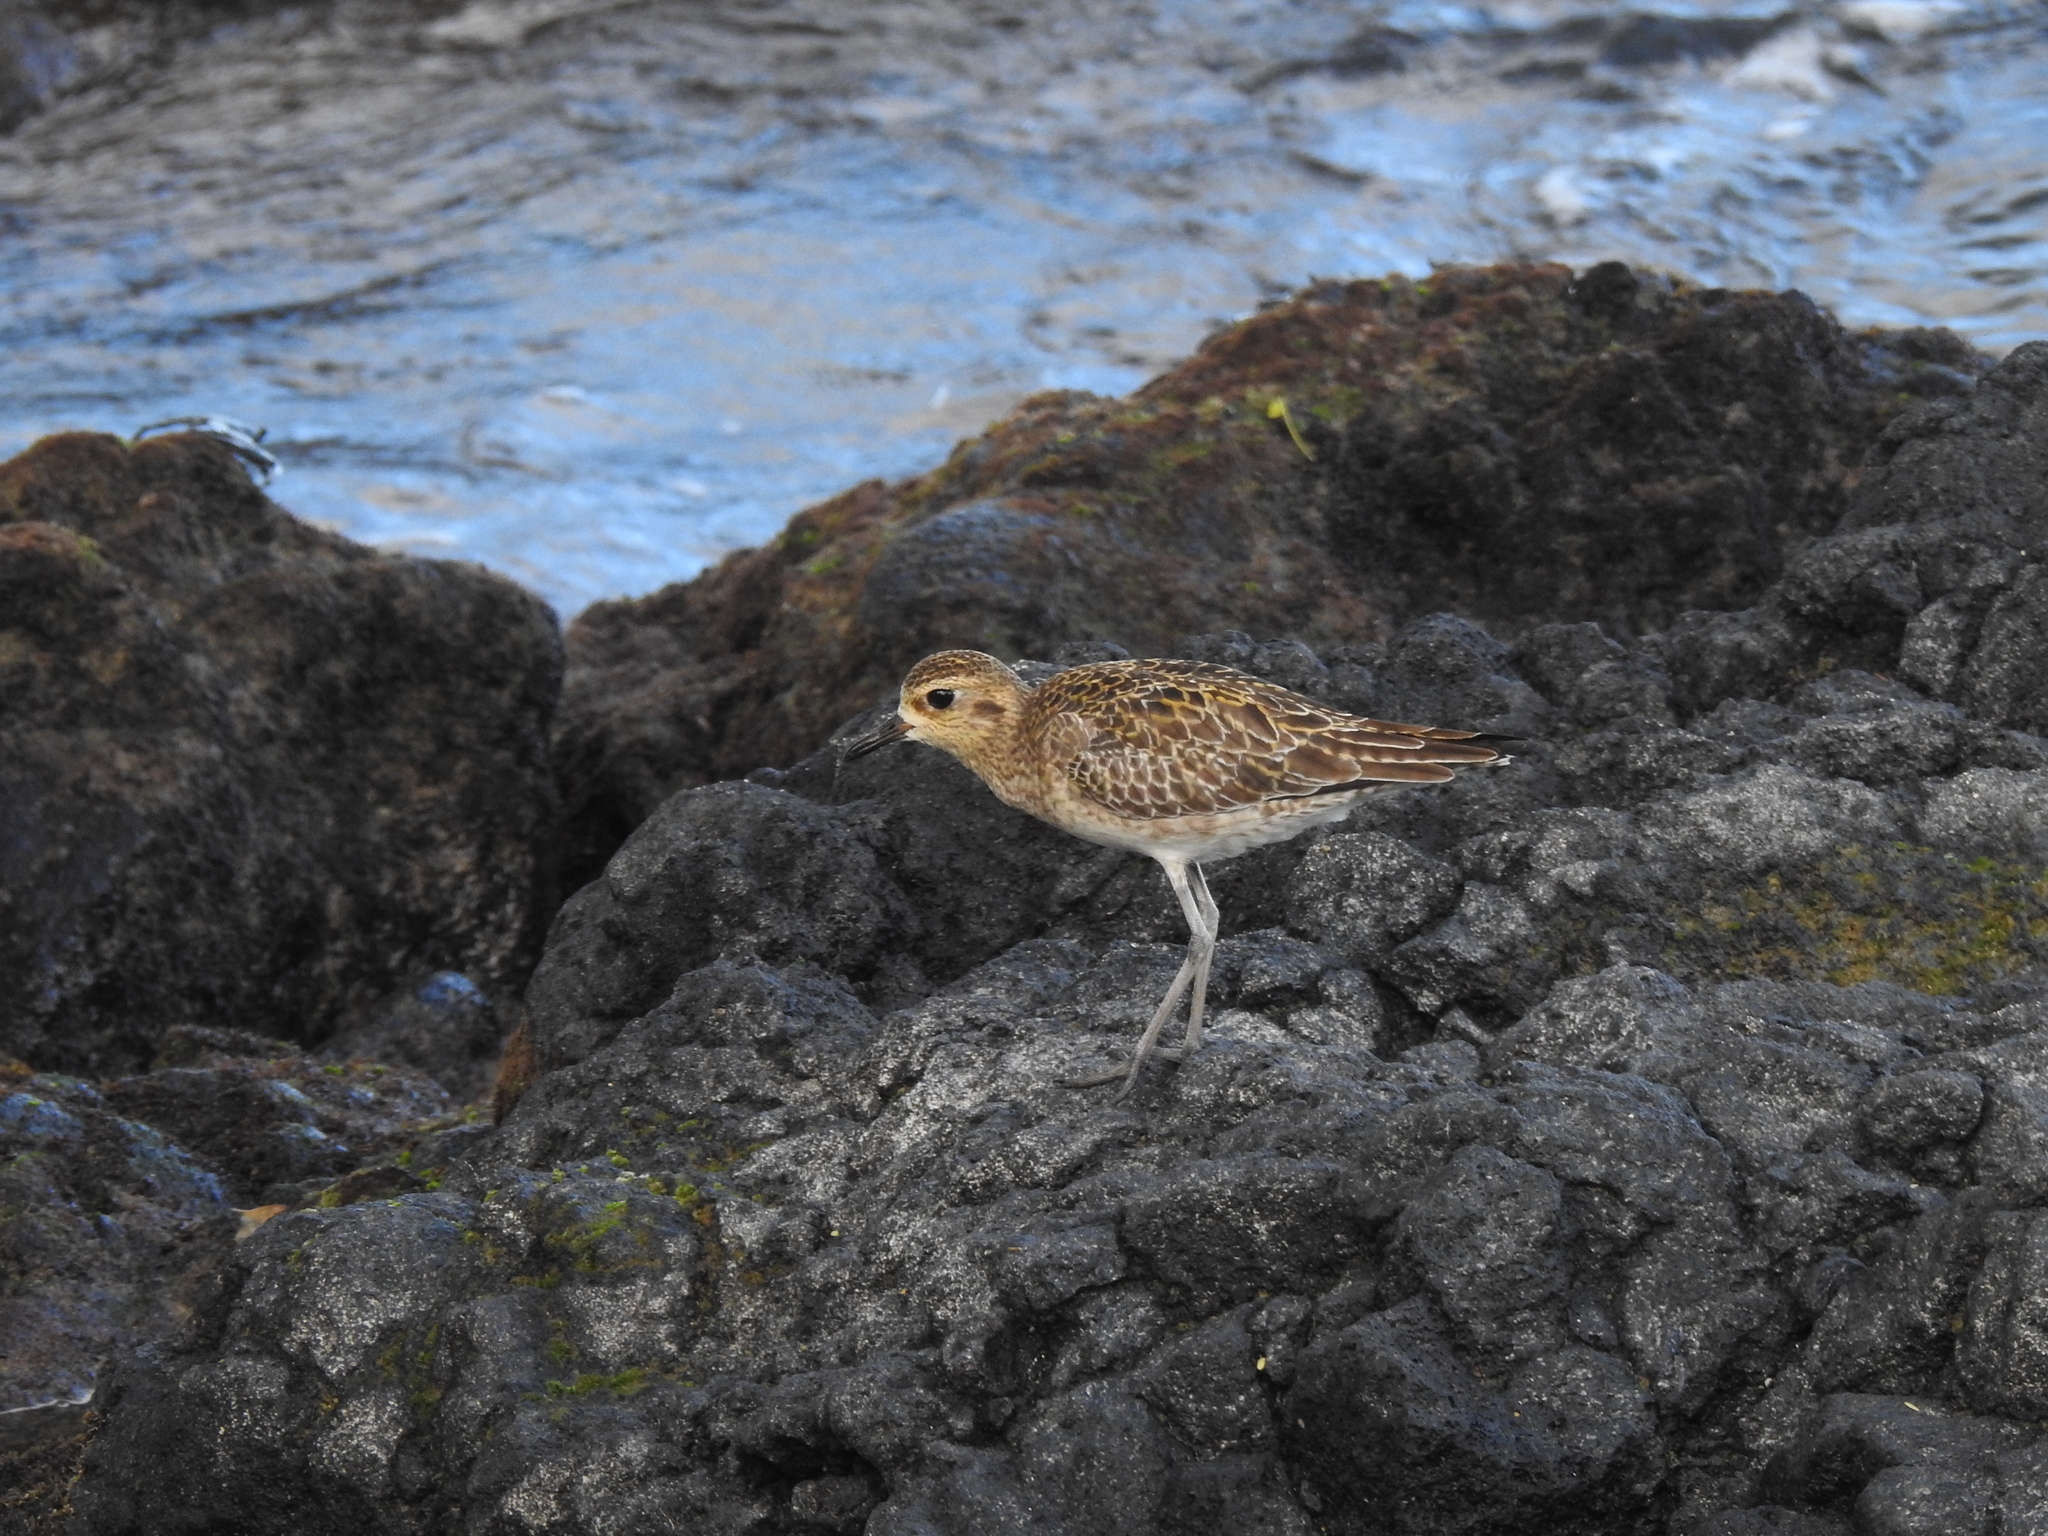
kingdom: Animalia
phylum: Chordata
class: Aves
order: Charadriiformes
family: Charadriidae
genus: Pluvialis
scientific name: Pluvialis fulva
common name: Pacific golden plover
